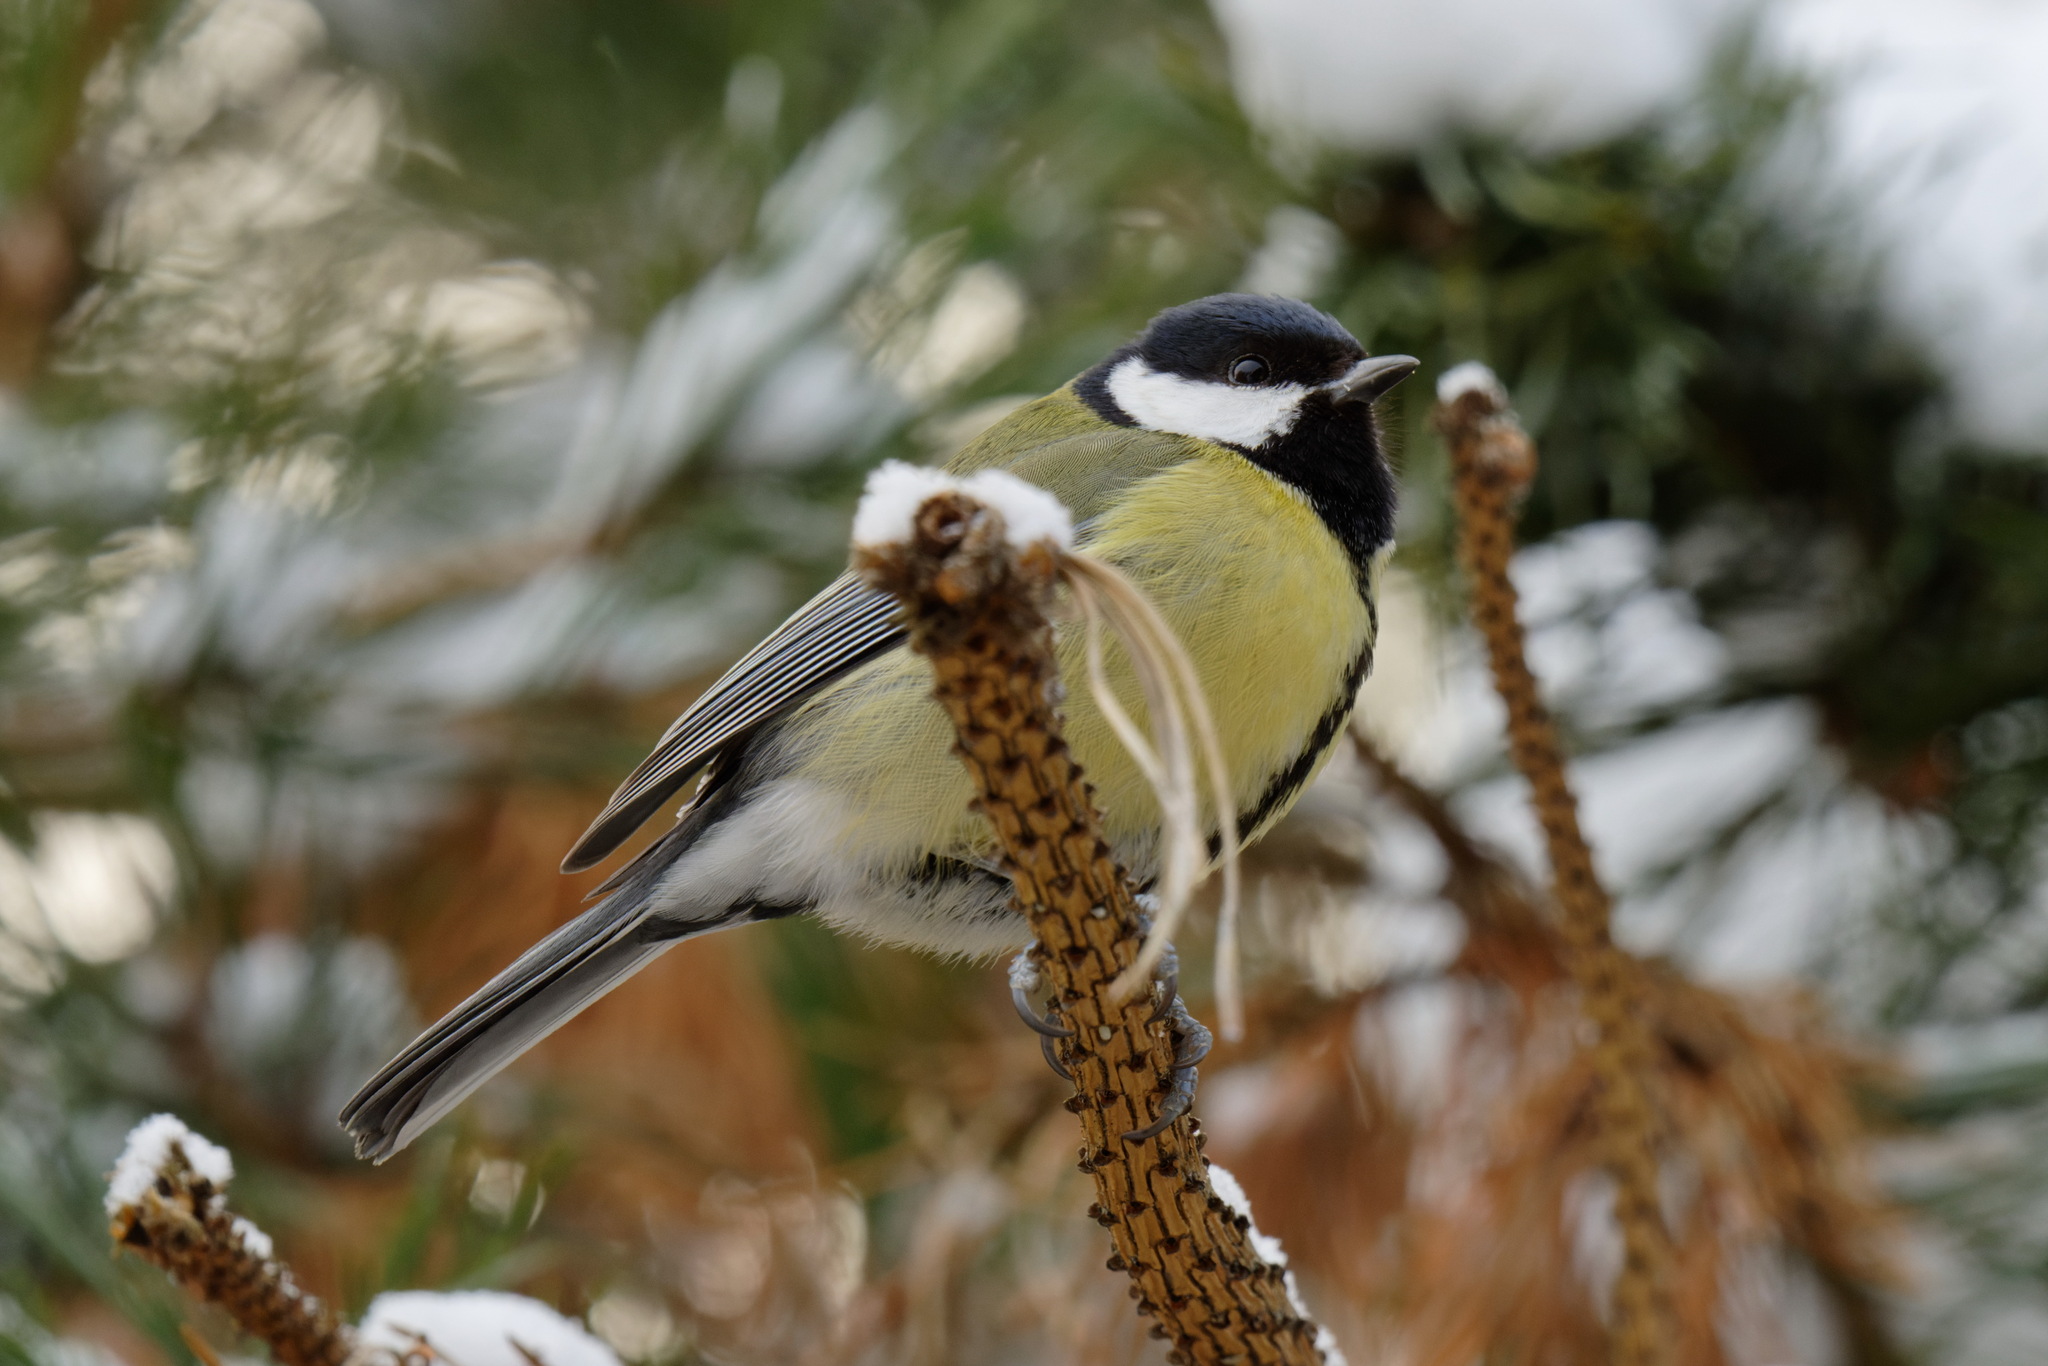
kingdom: Animalia
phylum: Chordata
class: Aves
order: Passeriformes
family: Paridae
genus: Parus
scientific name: Parus major
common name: Great tit
